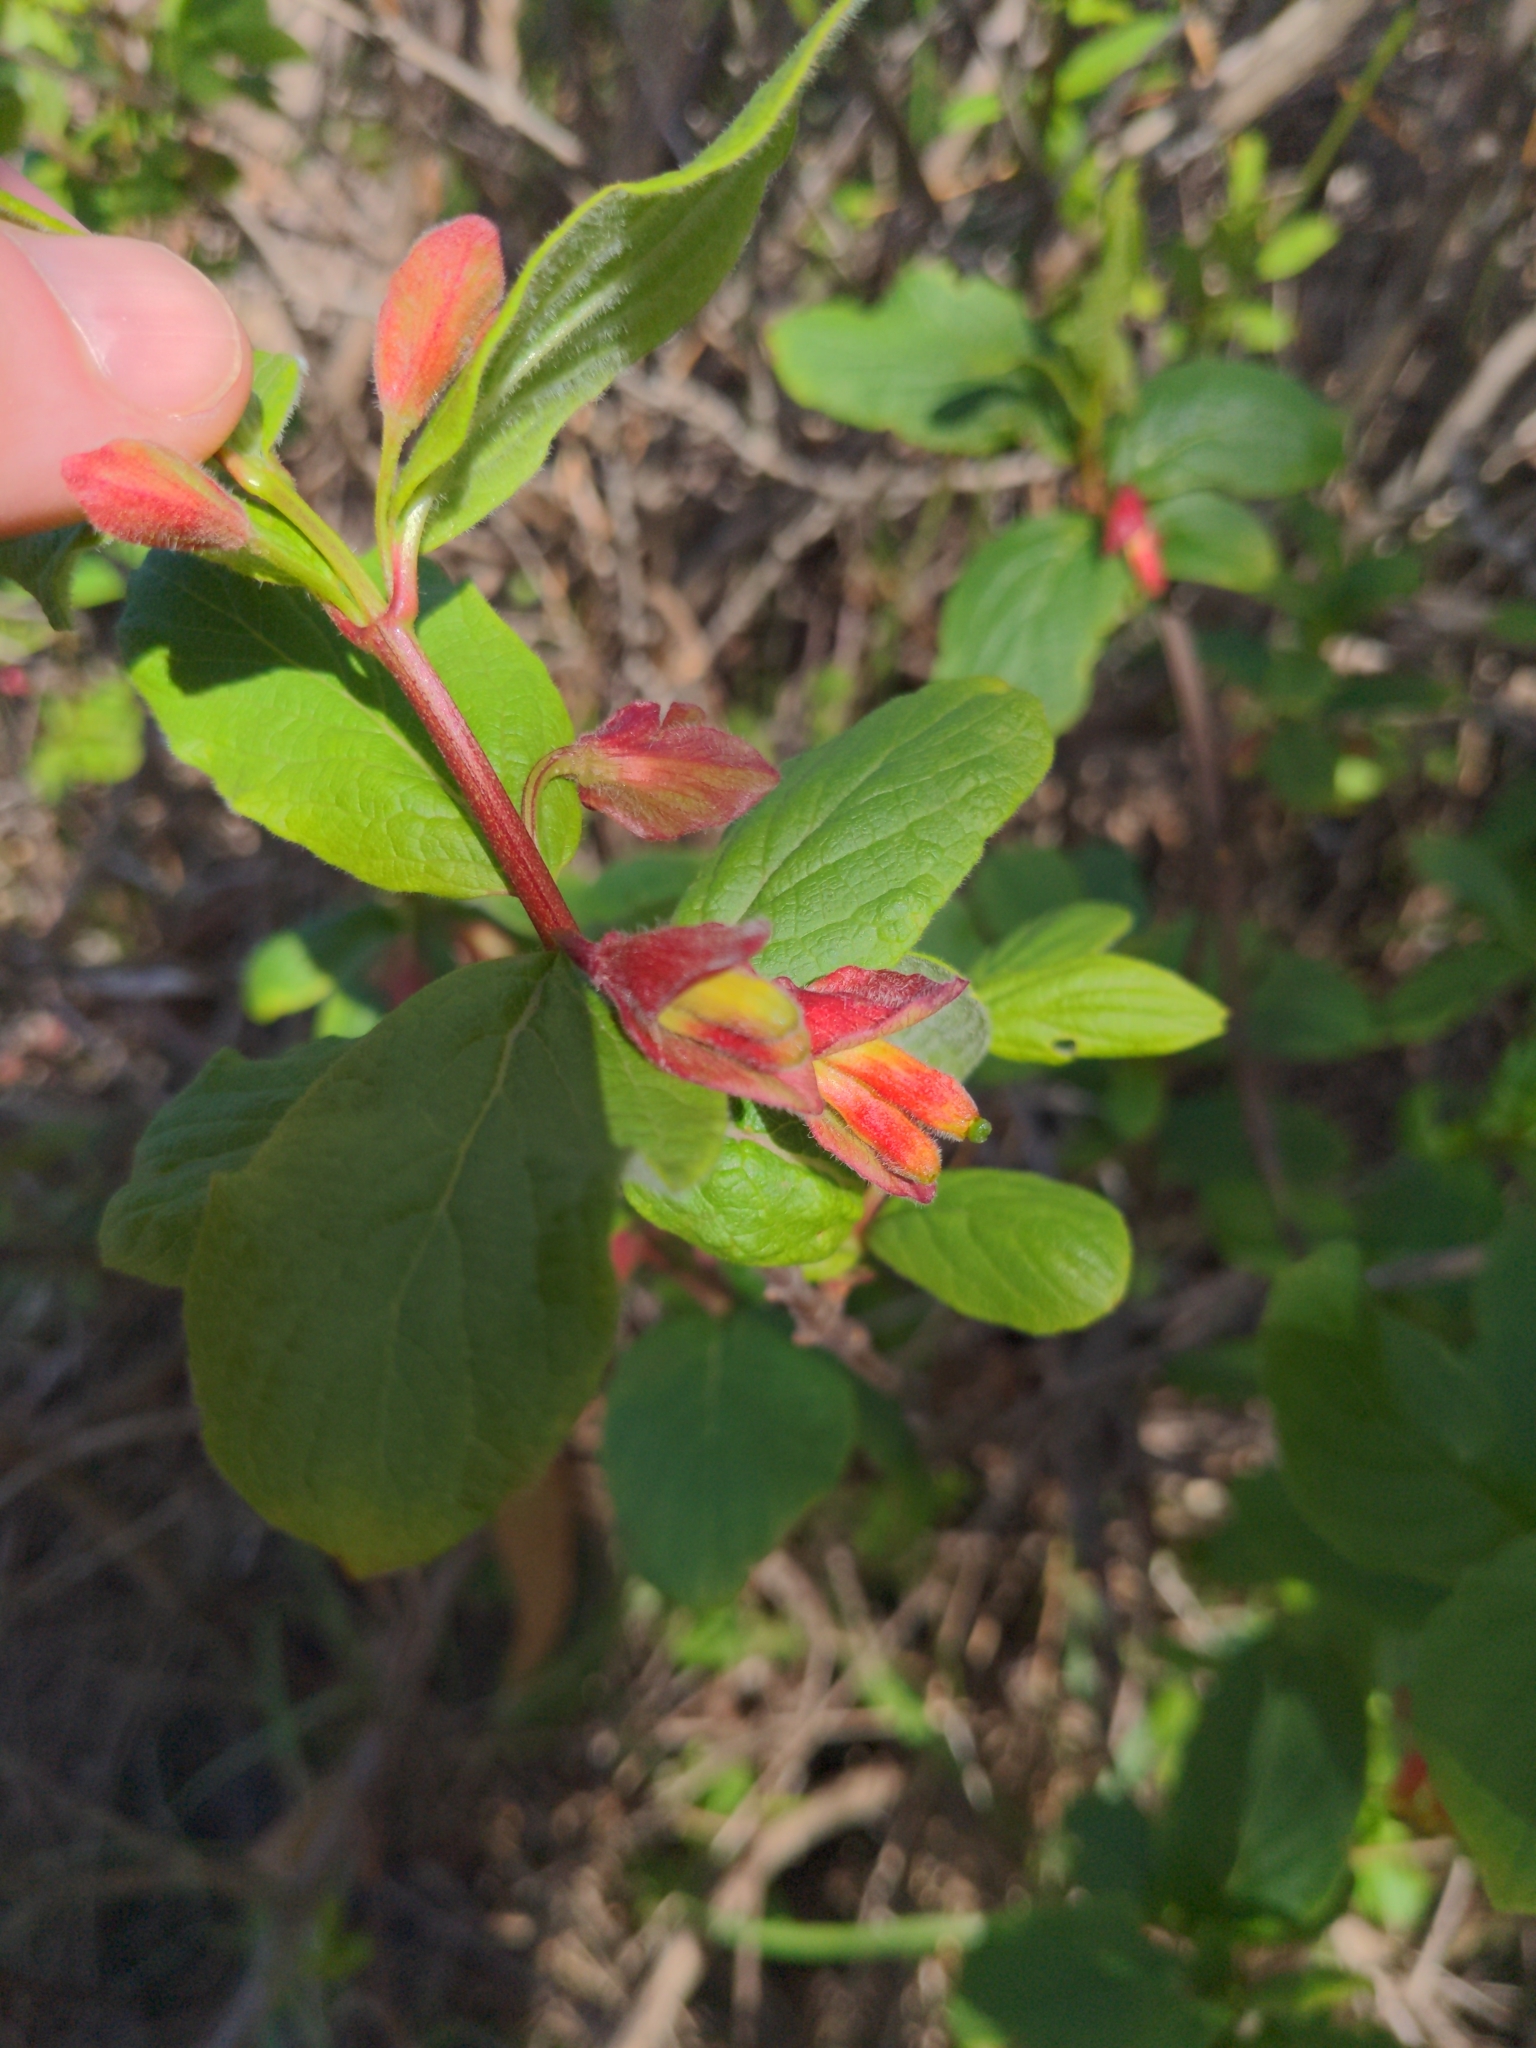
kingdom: Plantae
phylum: Tracheophyta
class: Magnoliopsida
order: Dipsacales
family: Caprifoliaceae
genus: Lonicera
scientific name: Lonicera involucrata
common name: Californian honeysuckle
